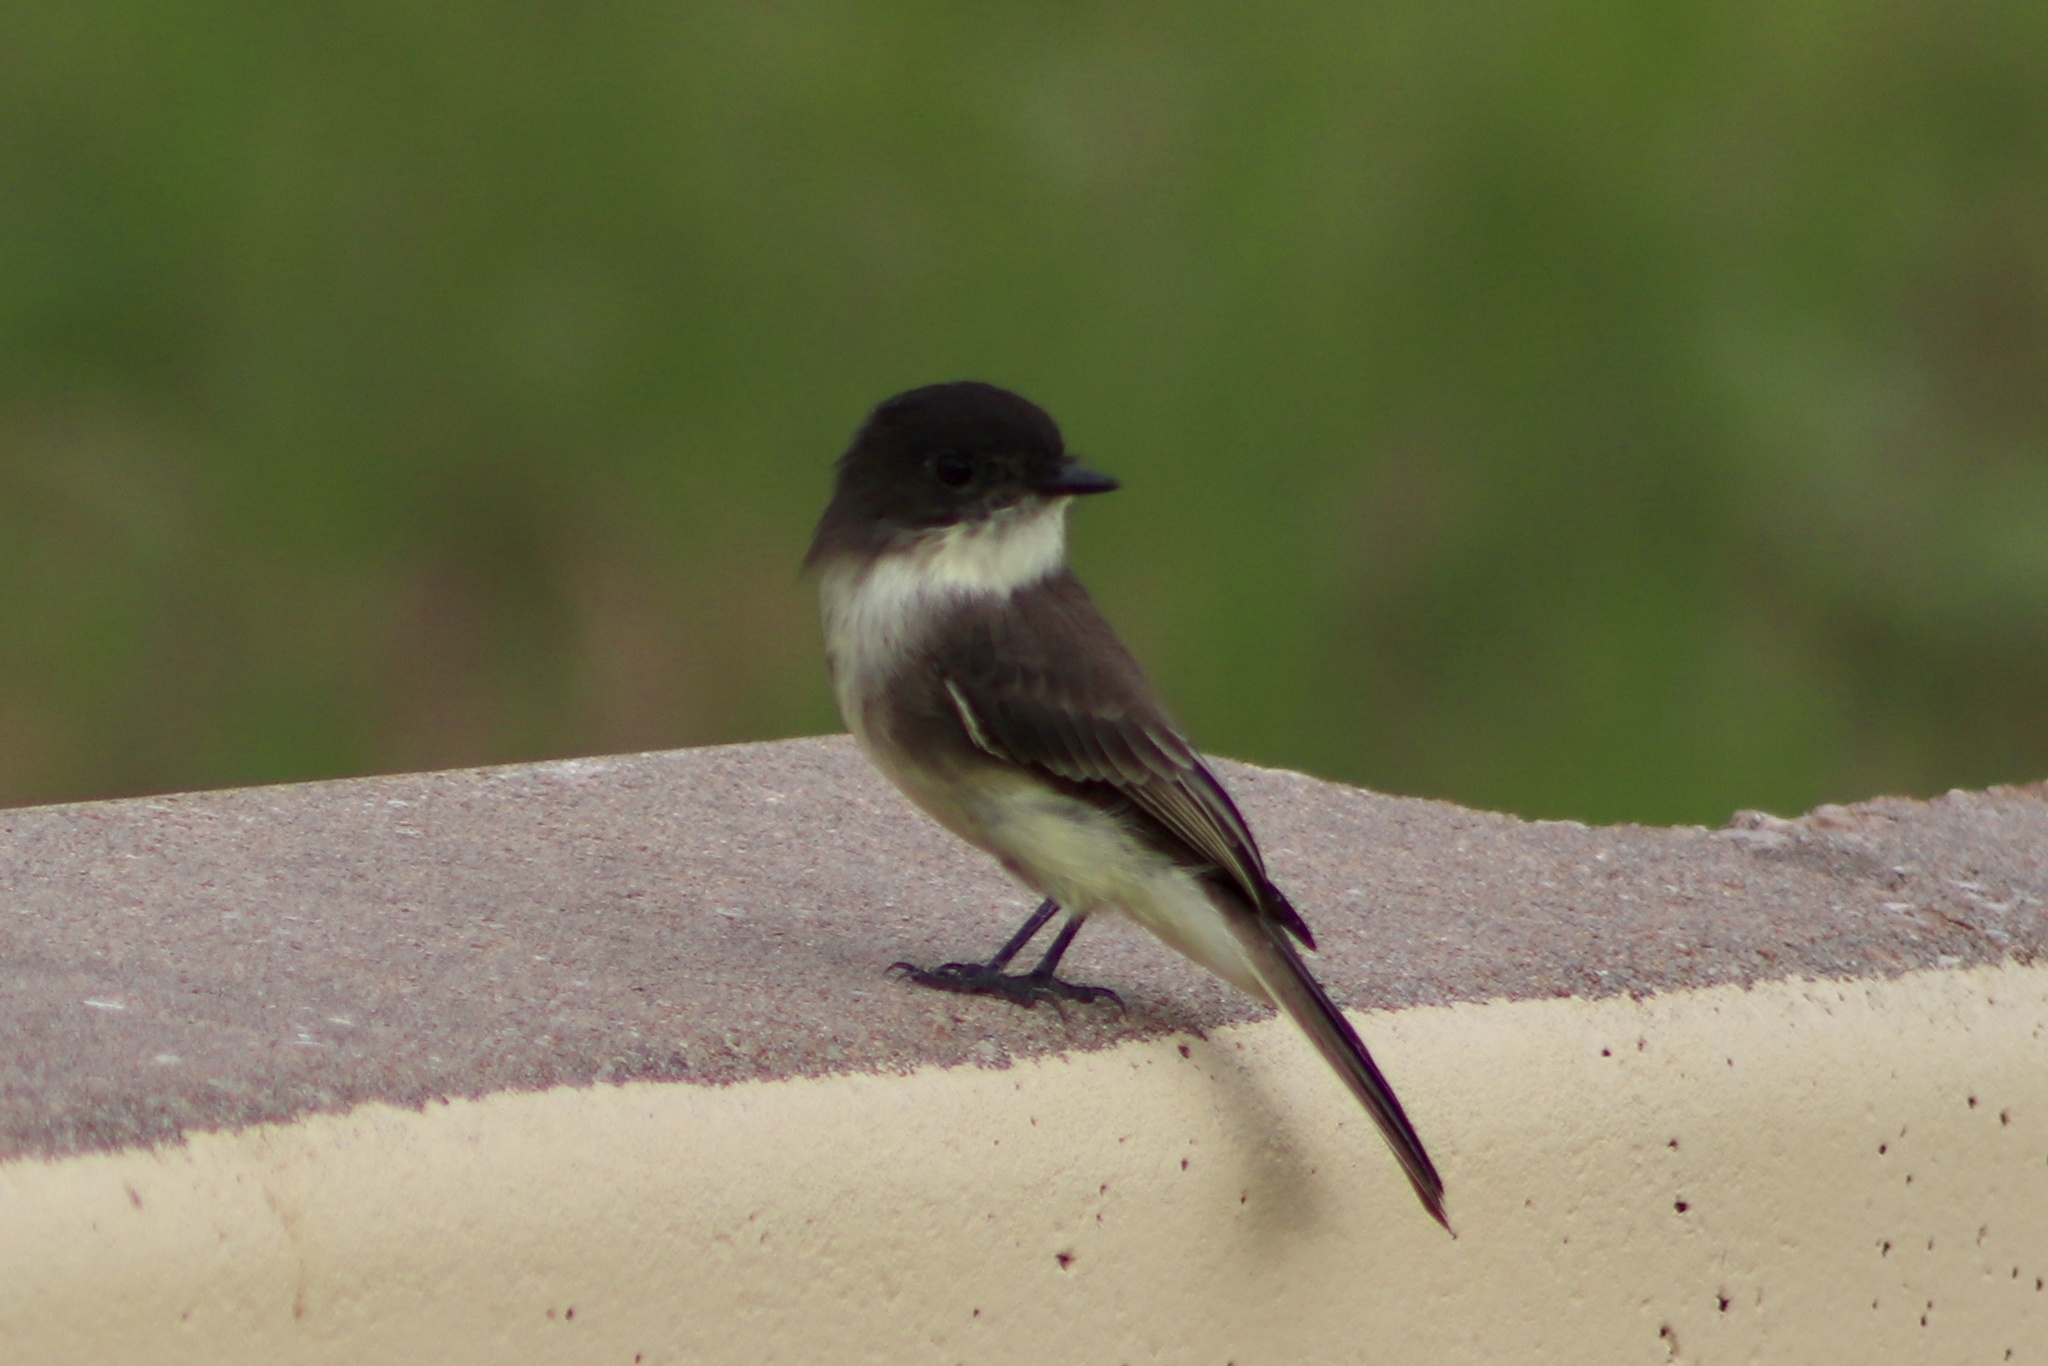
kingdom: Animalia
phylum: Chordata
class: Aves
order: Passeriformes
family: Tyrannidae
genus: Sayornis
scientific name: Sayornis phoebe
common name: Eastern phoebe
